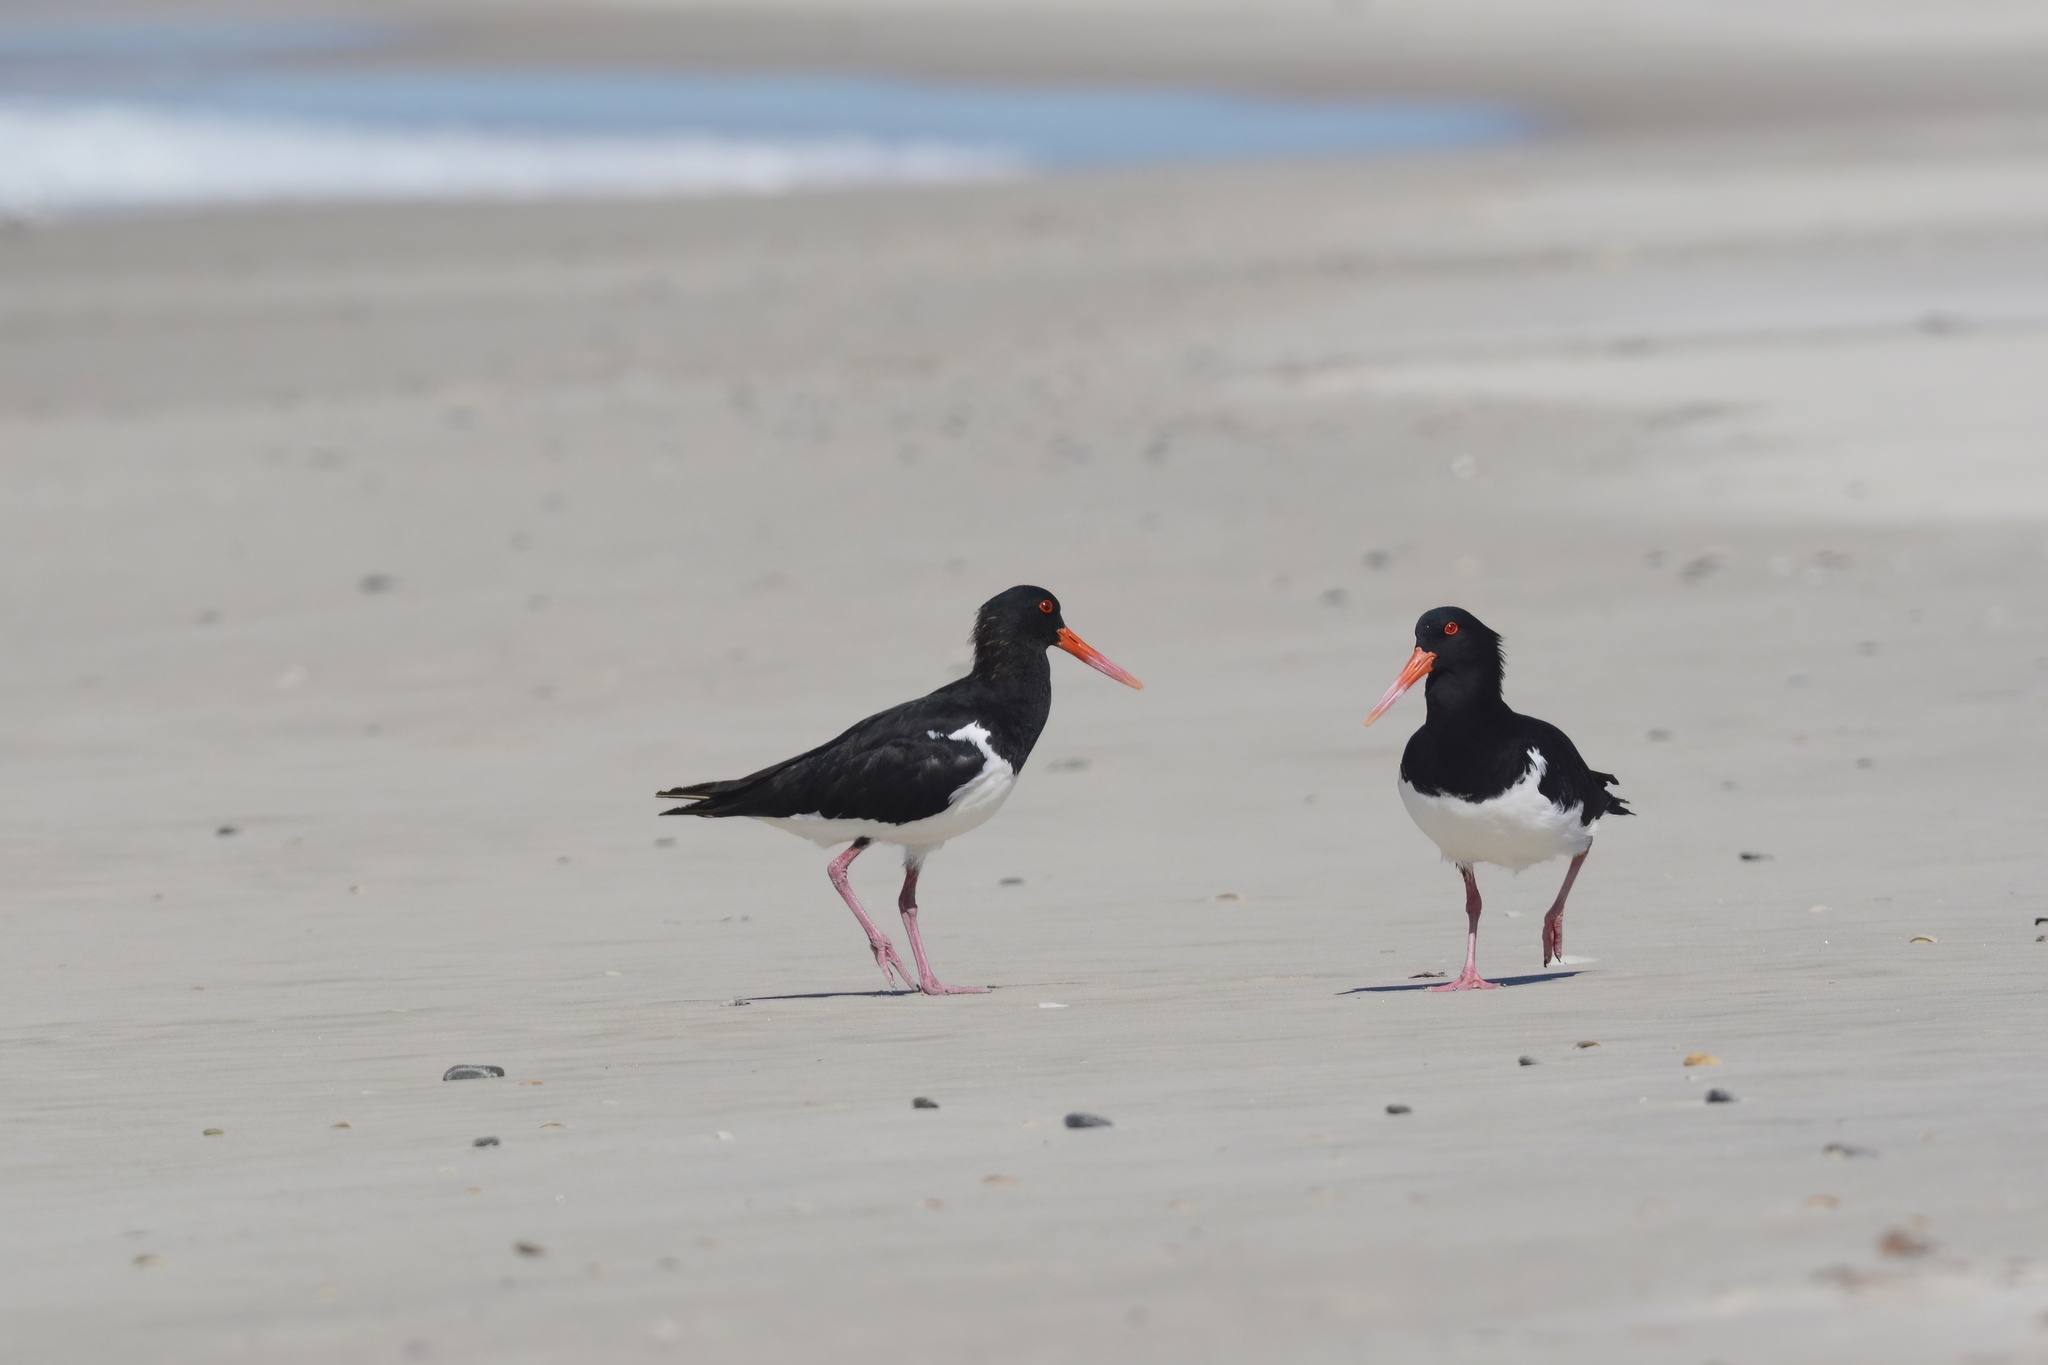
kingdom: Animalia
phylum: Chordata
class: Aves
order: Charadriiformes
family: Haematopodidae
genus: Haematopus
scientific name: Haematopus longirostris
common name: Pied oystercatcher
